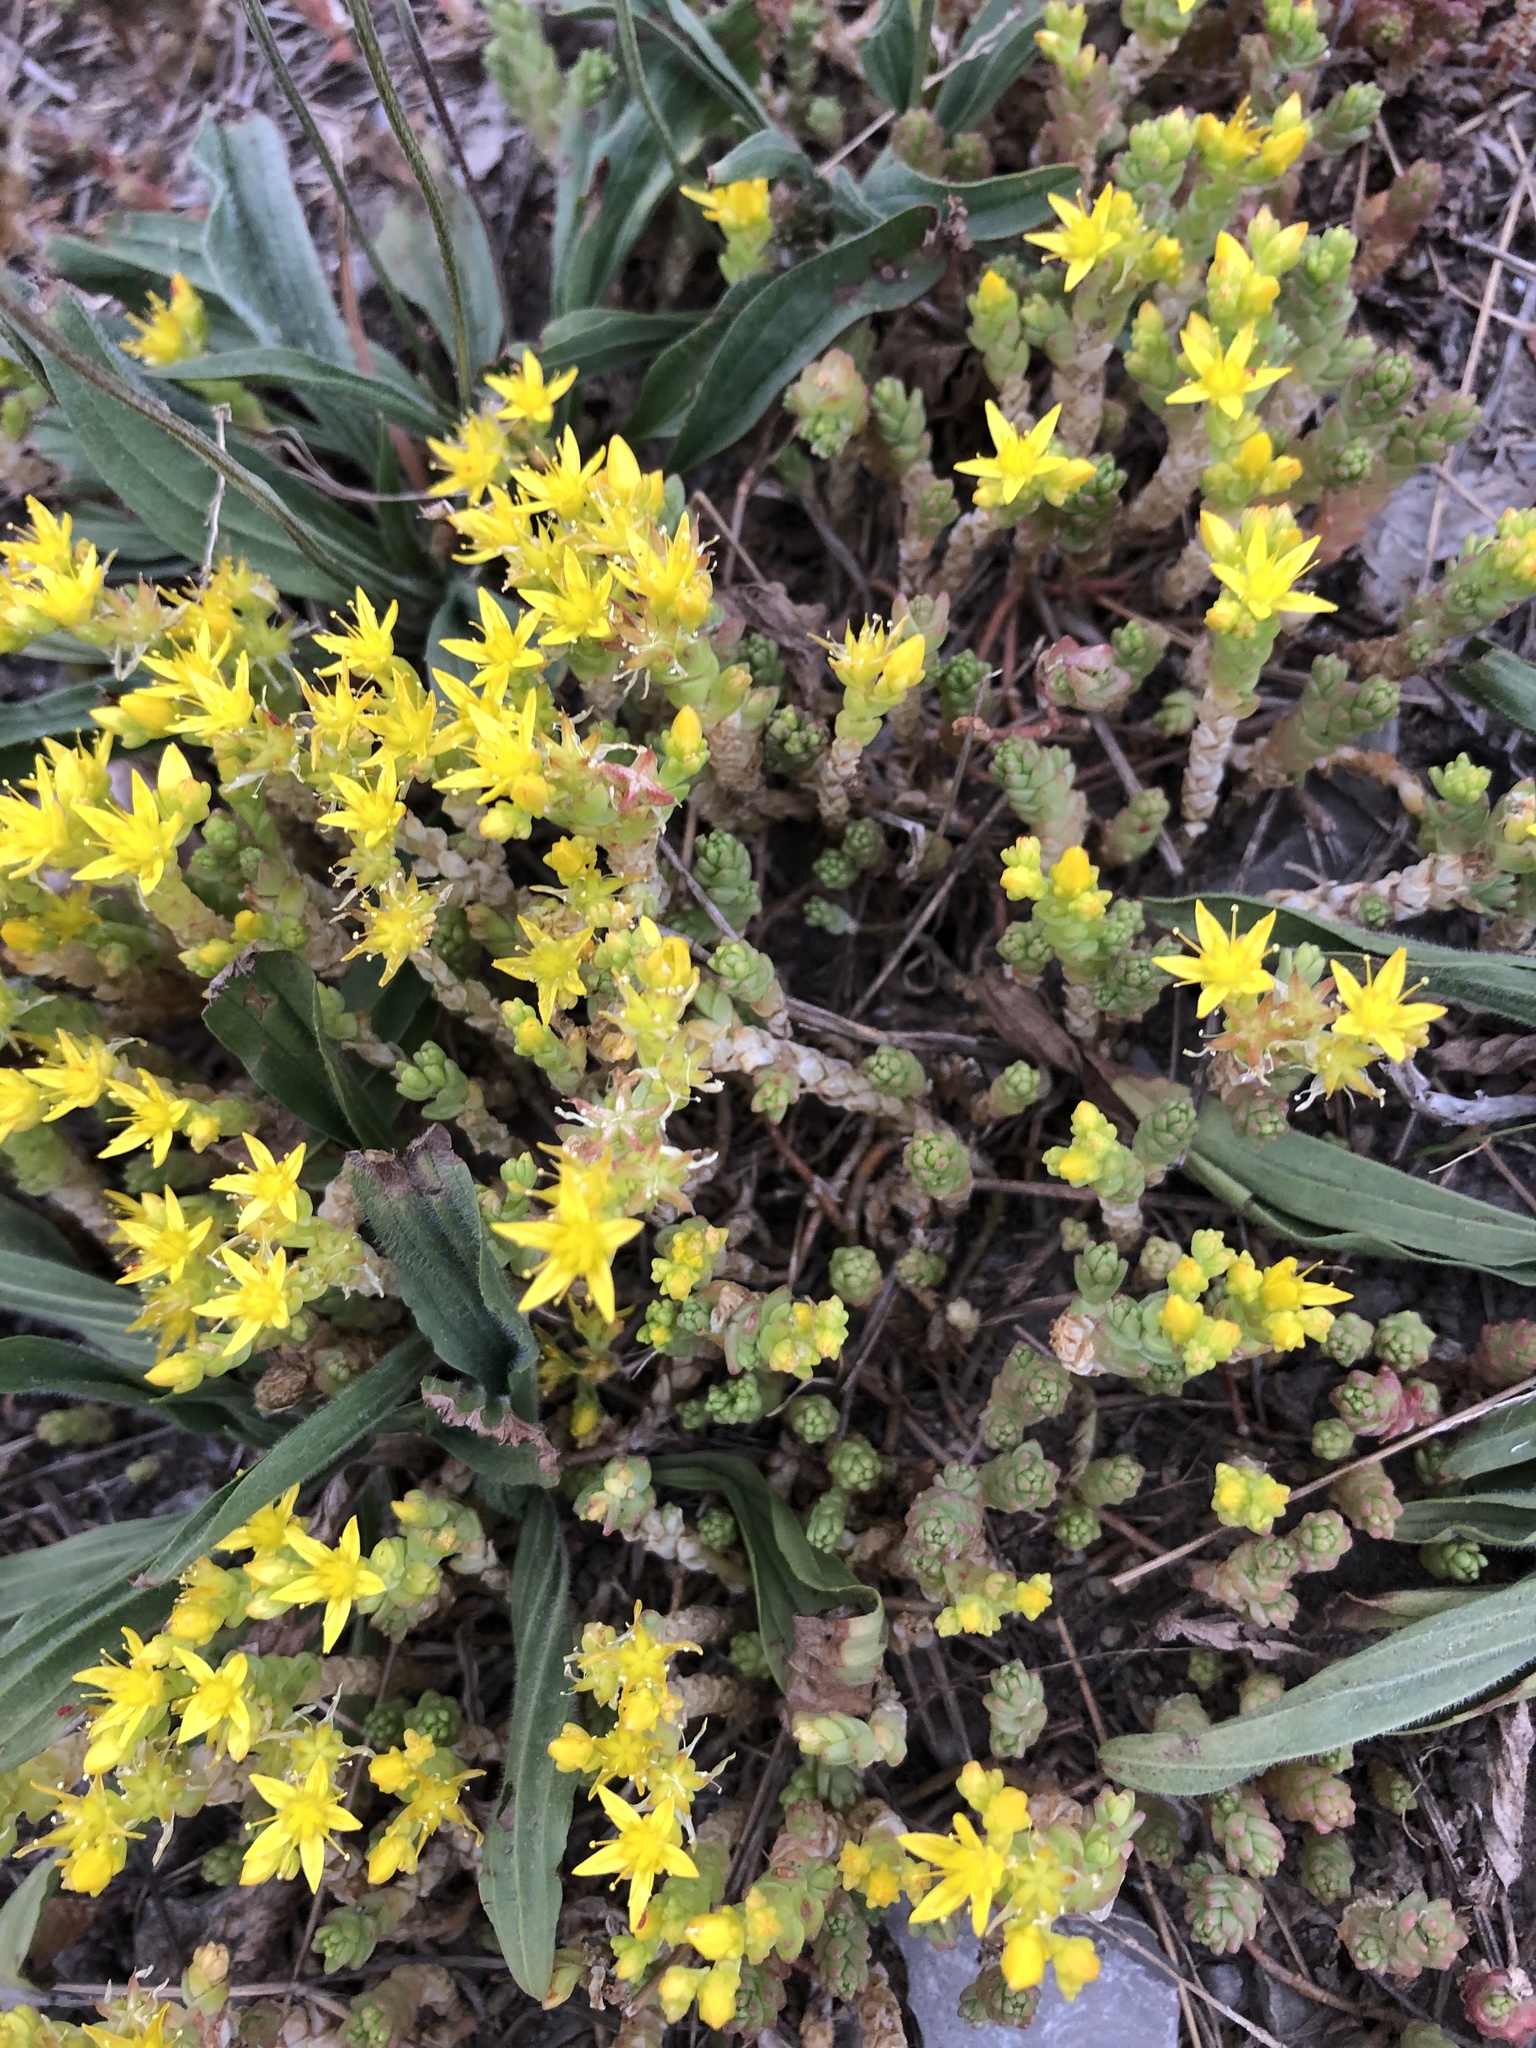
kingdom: Plantae
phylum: Tracheophyta
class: Magnoliopsida
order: Saxifragales
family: Crassulaceae
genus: Sedum
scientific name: Sedum acre
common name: Biting stonecrop
